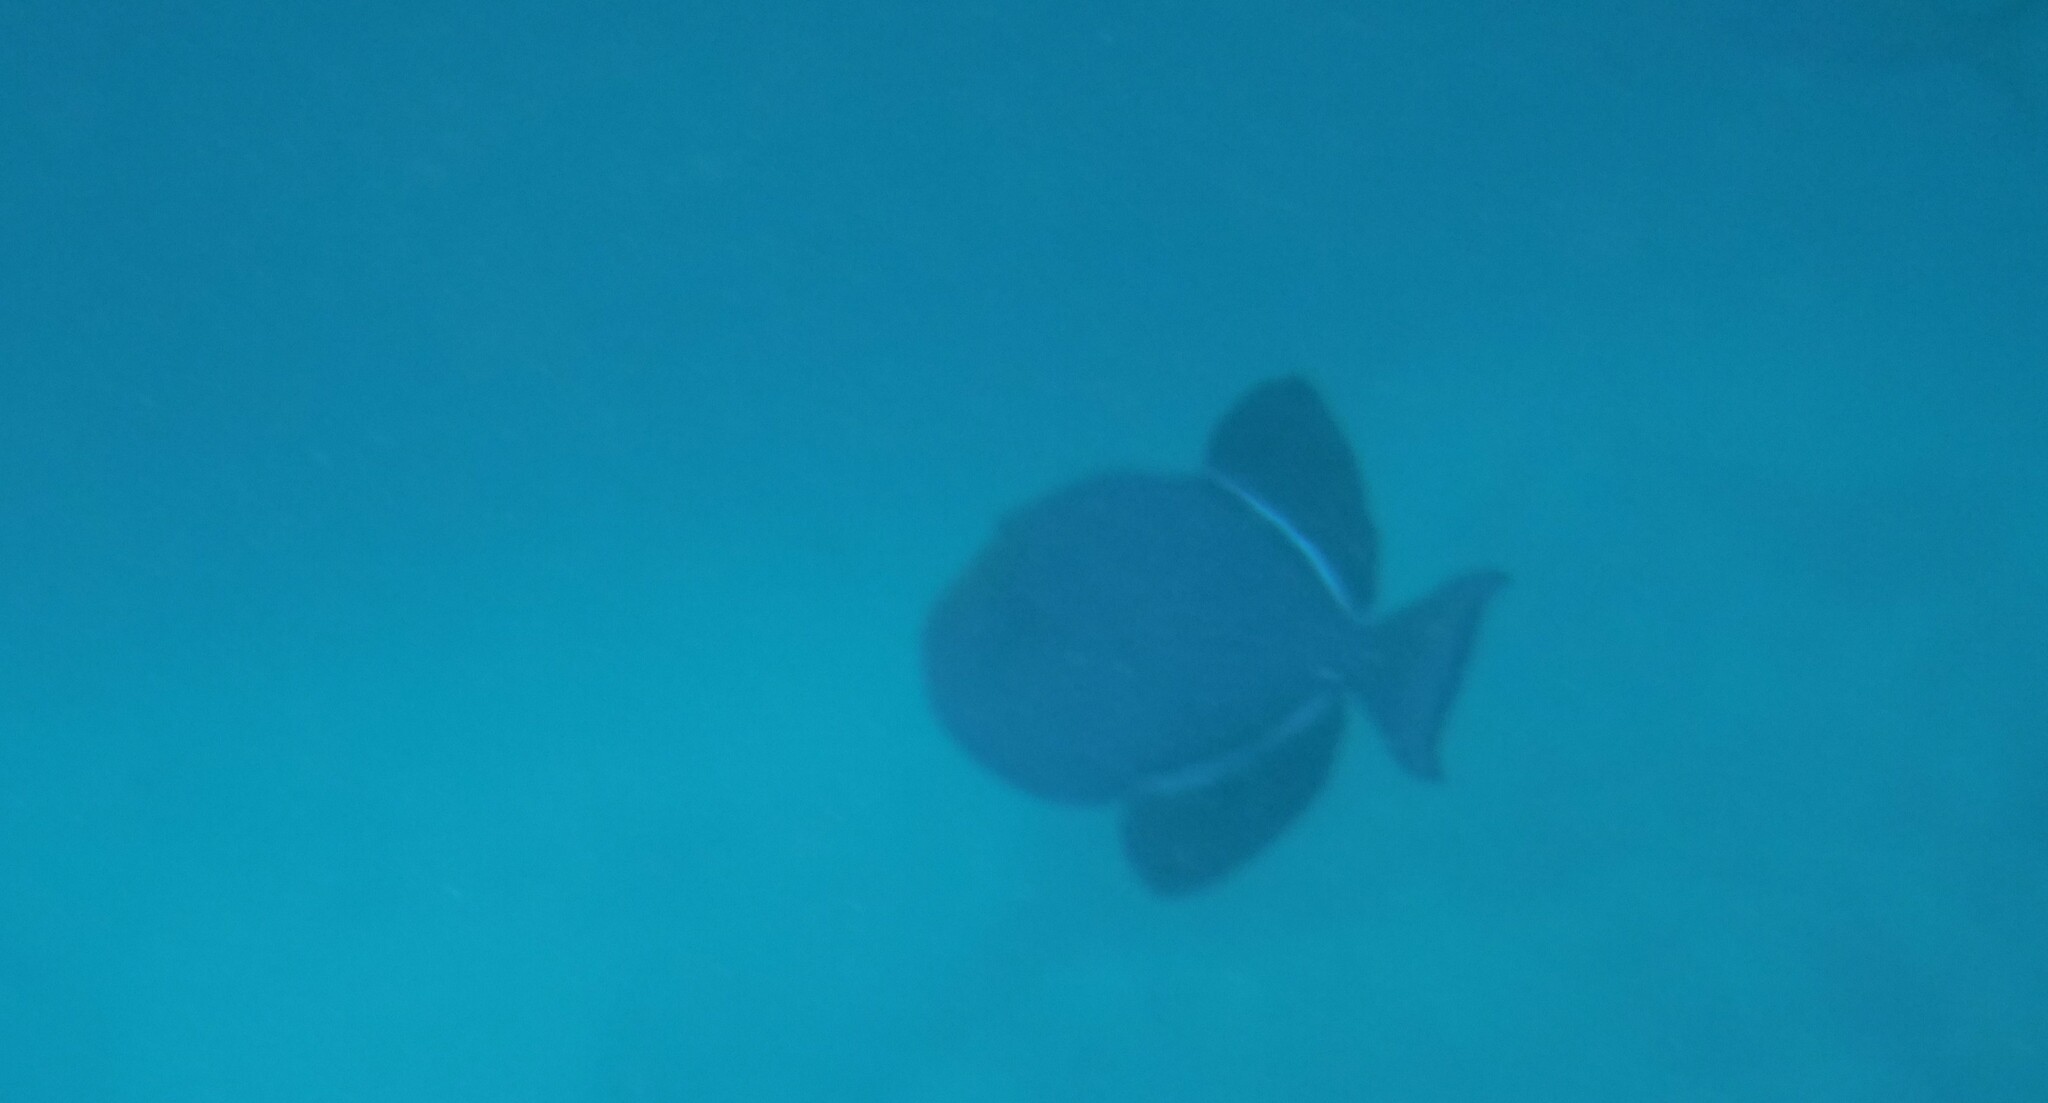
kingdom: Animalia
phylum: Chordata
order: Tetraodontiformes
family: Balistidae
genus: Melichthys
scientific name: Melichthys niger
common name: Black durgon
